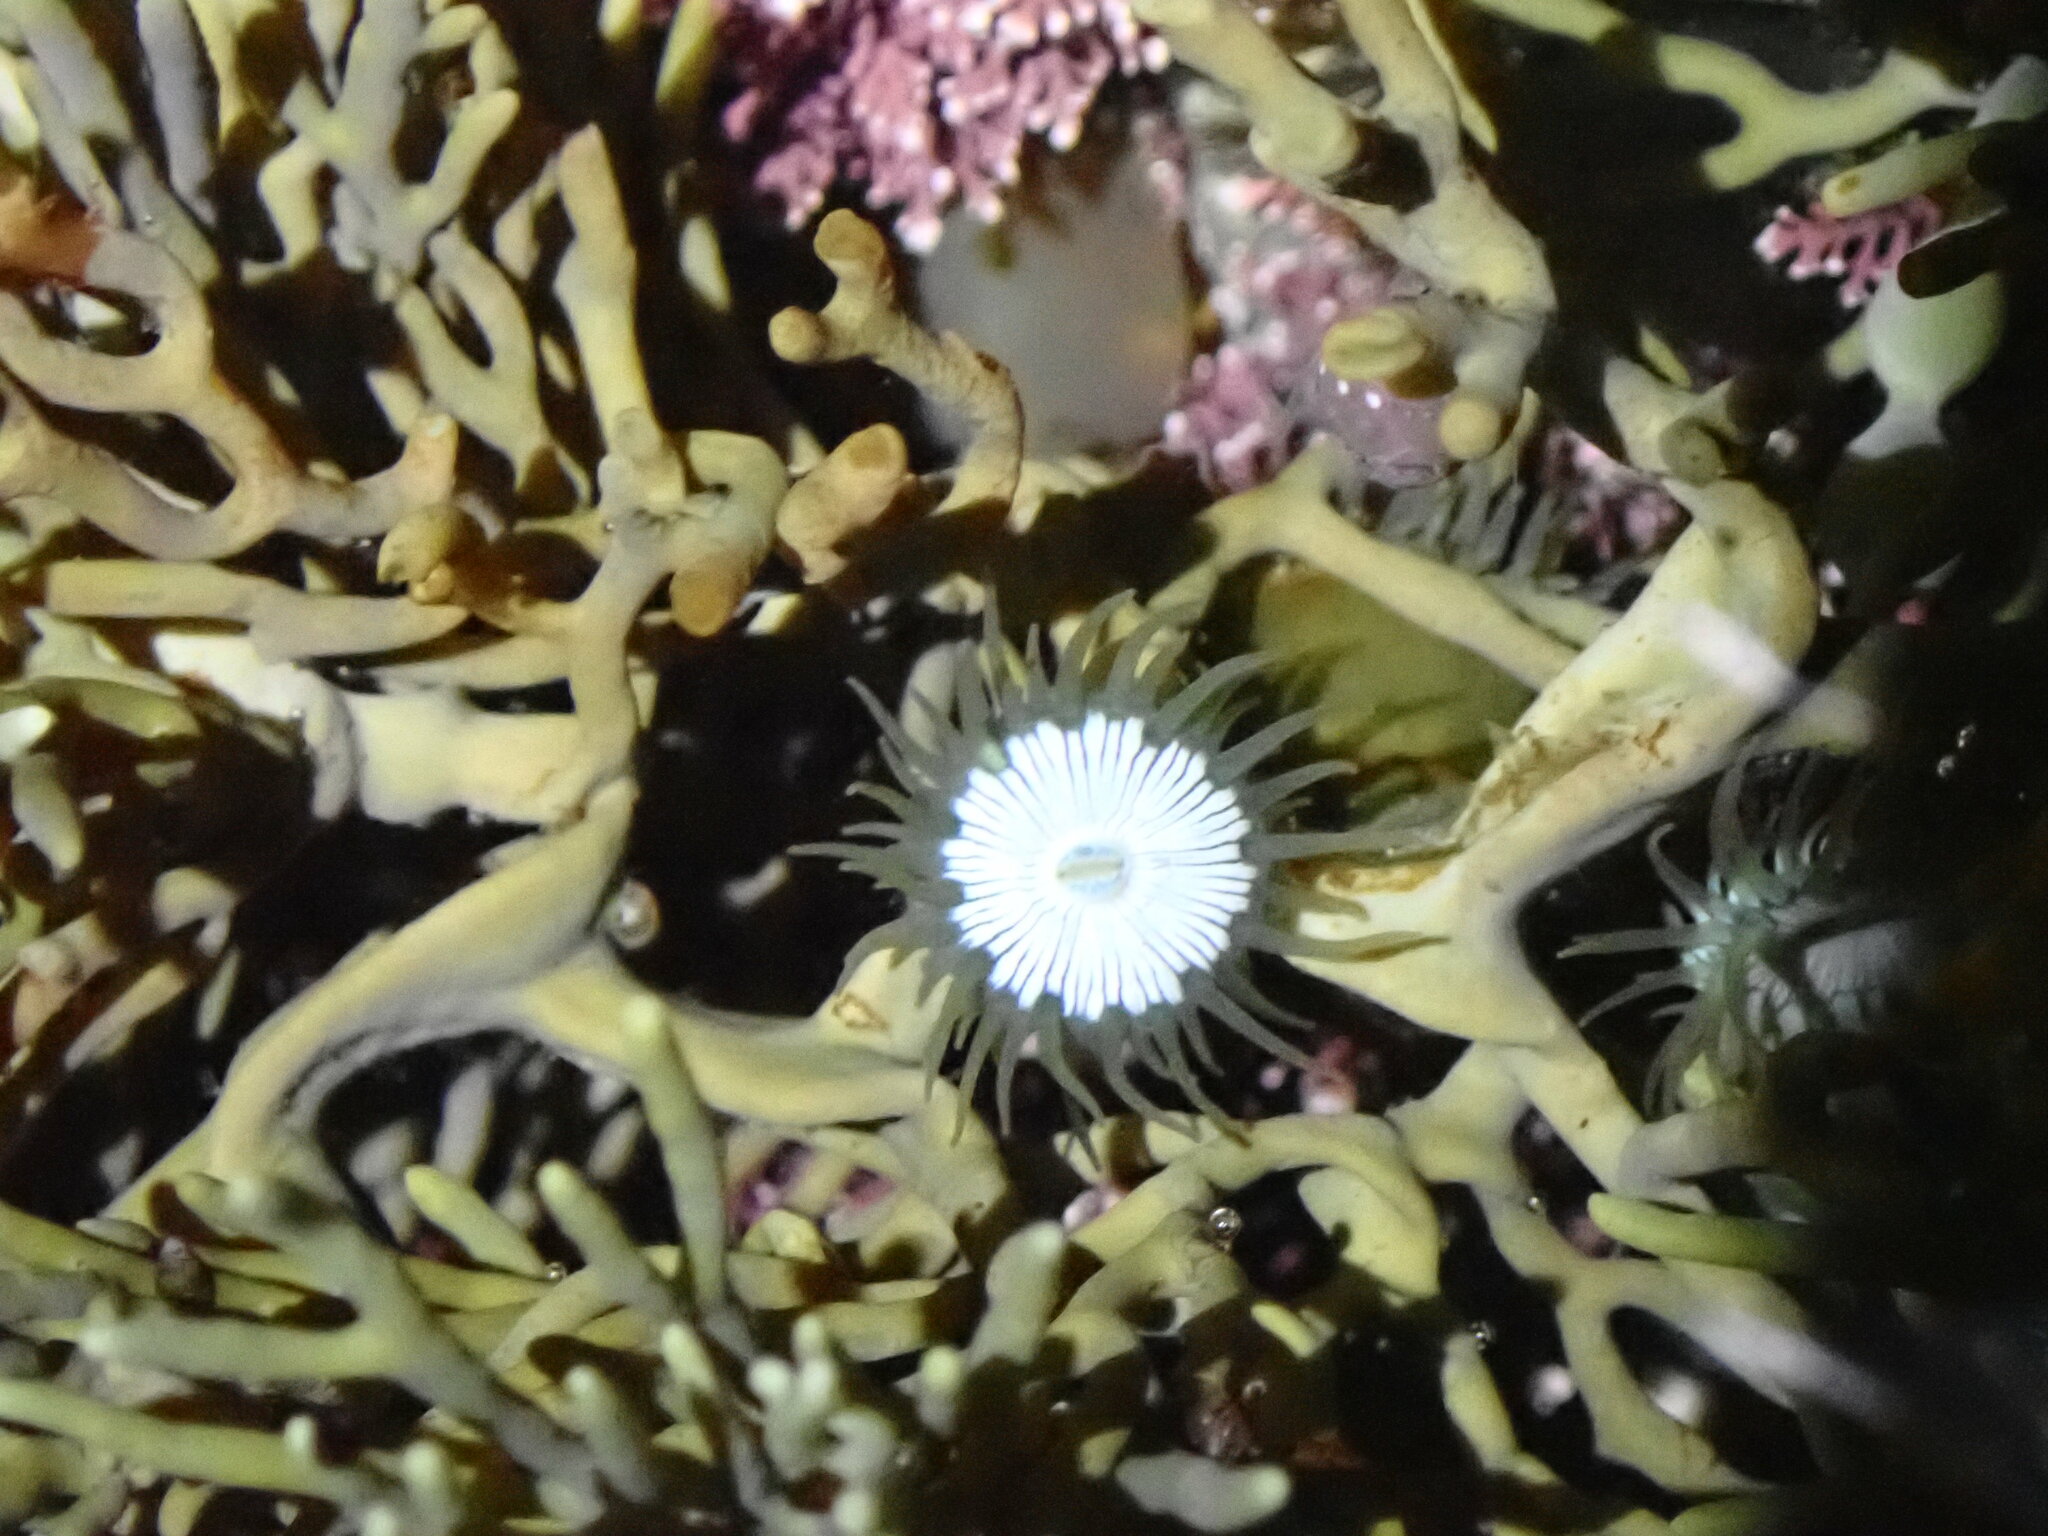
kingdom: Animalia
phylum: Cnidaria
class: Anthozoa
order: Actiniaria
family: Hormathiidae
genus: Handactis
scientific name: Handactis nutrix
